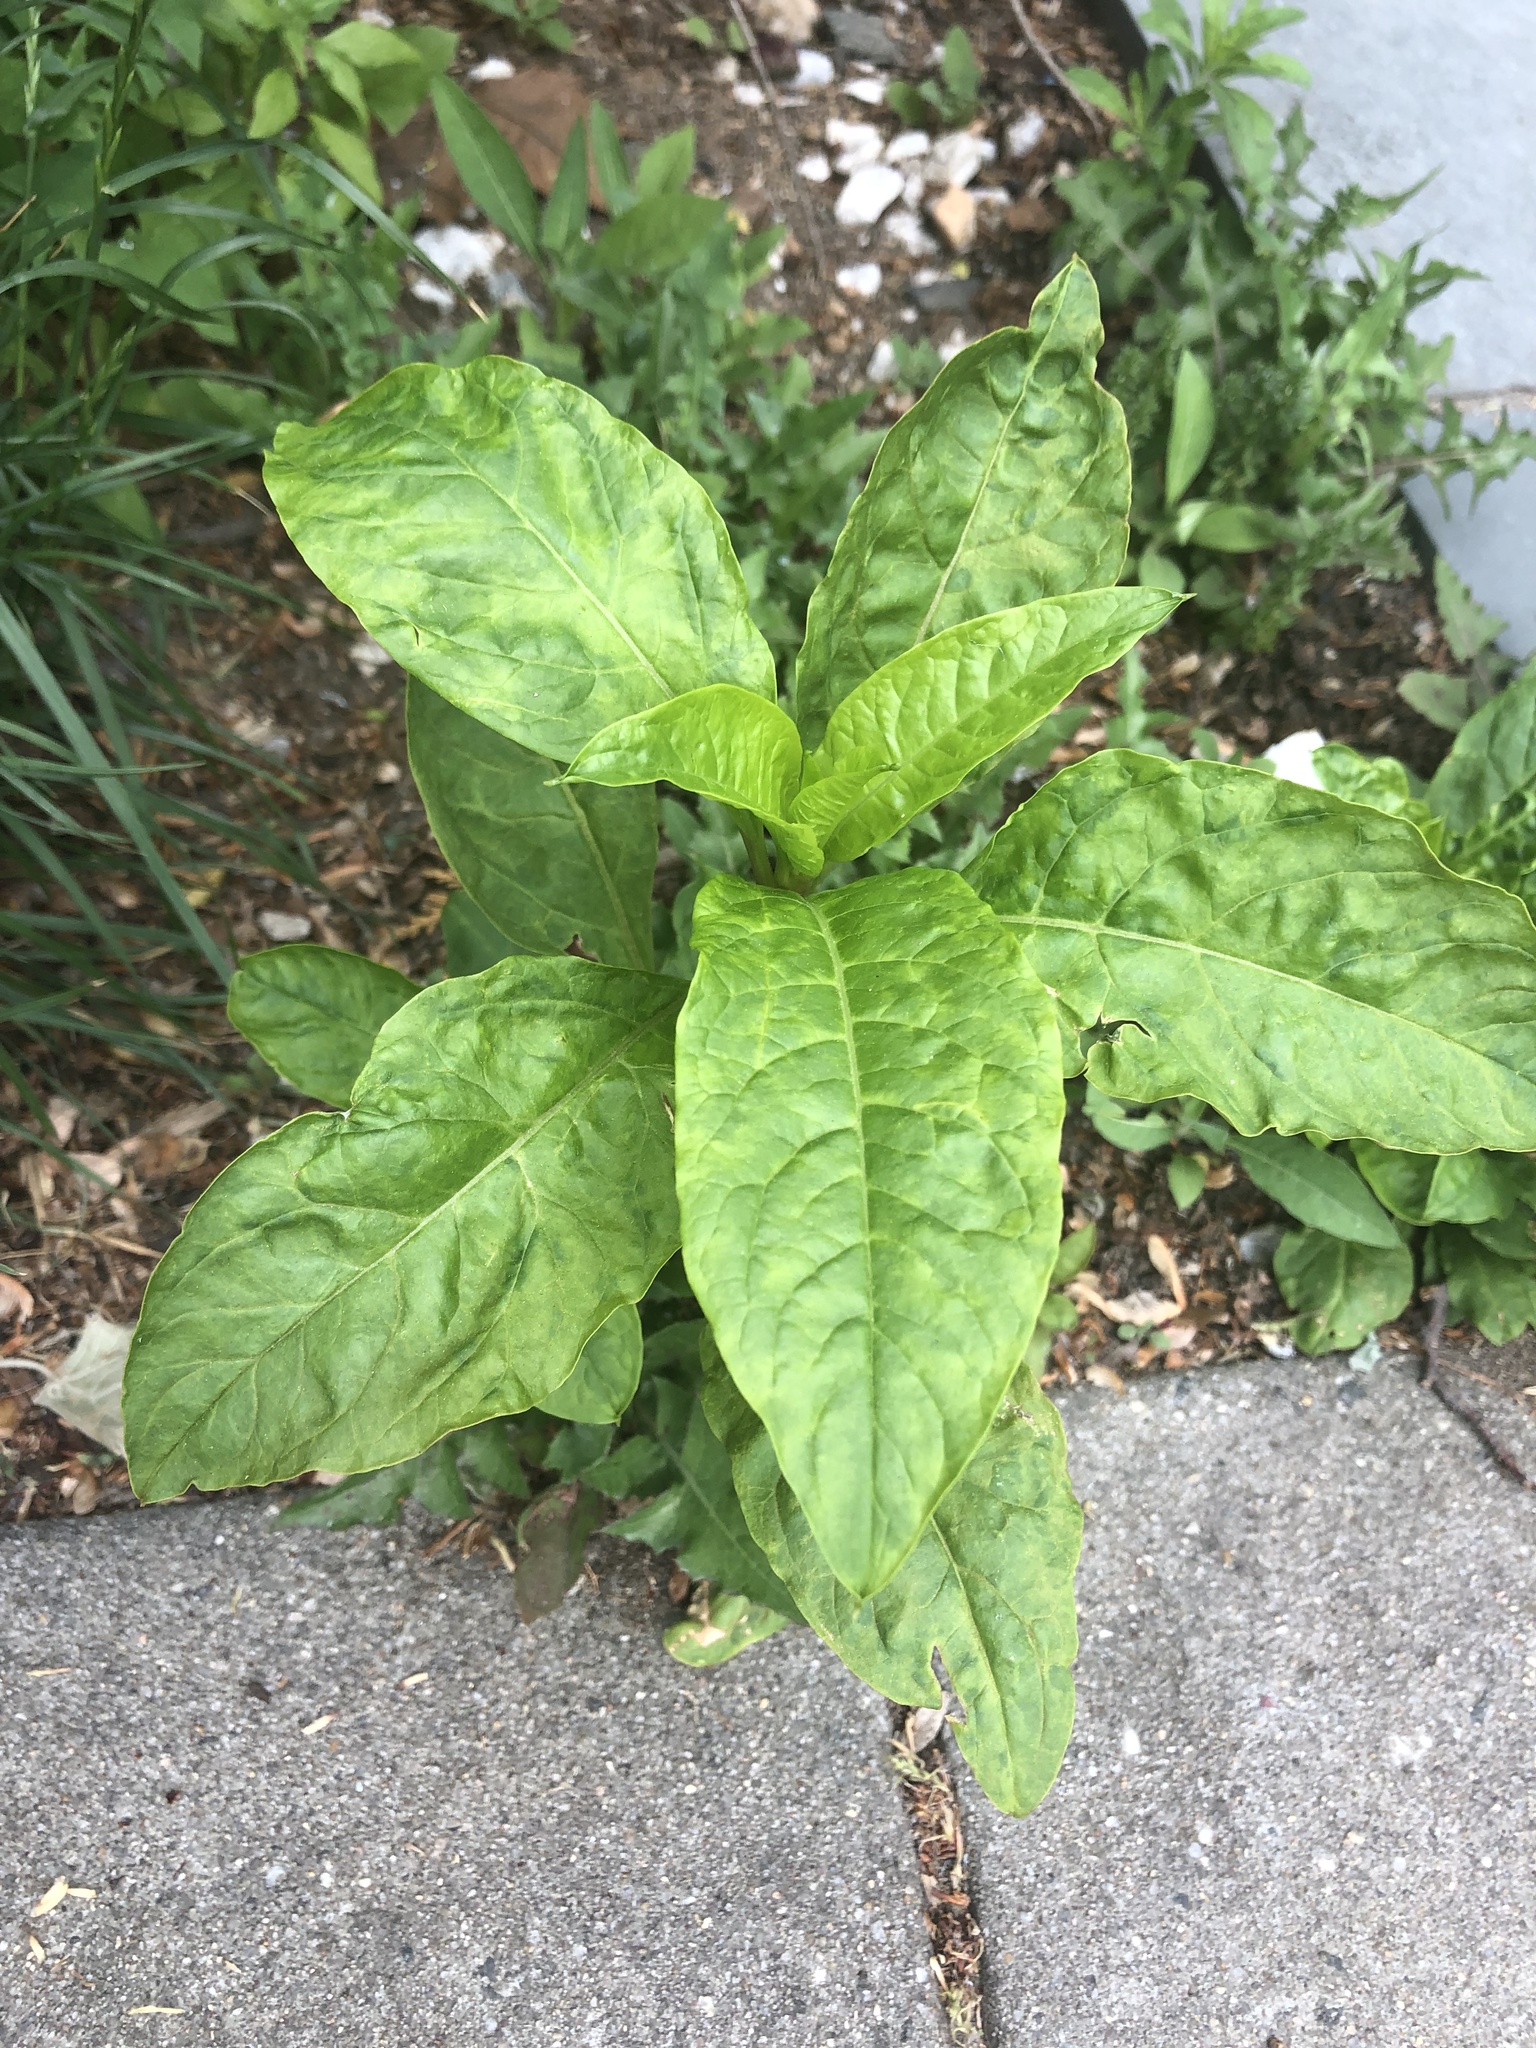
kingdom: Plantae
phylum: Tracheophyta
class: Magnoliopsida
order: Caryophyllales
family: Phytolaccaceae
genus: Phytolacca
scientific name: Phytolacca americana
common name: American pokeweed
